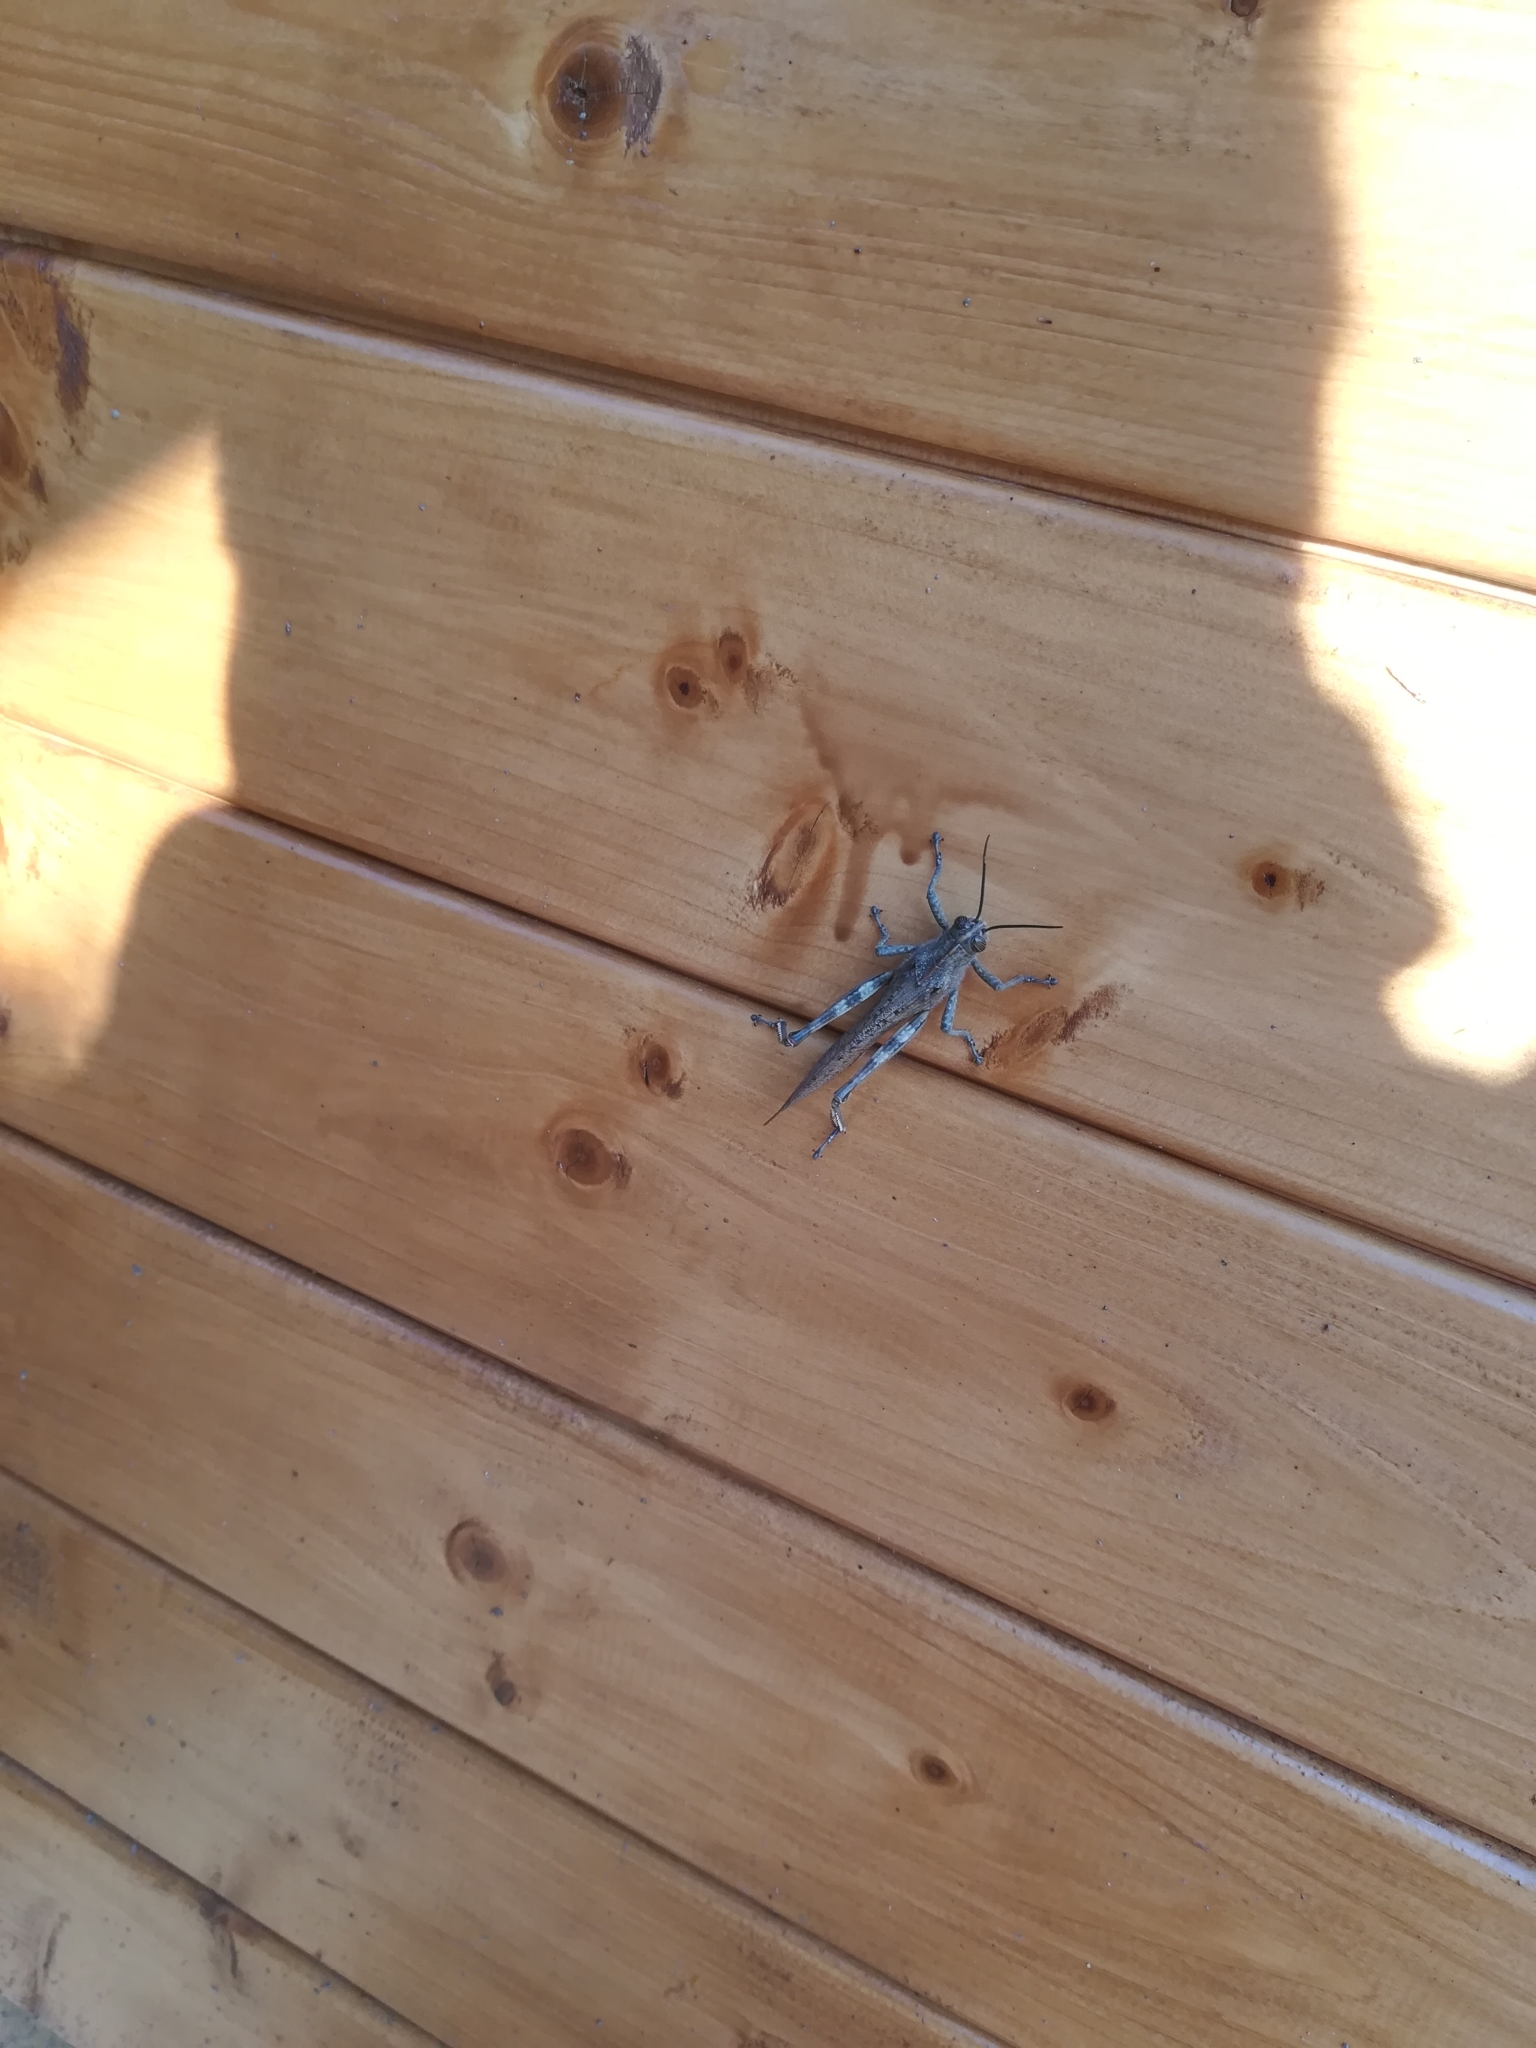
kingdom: Animalia
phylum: Arthropoda
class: Insecta
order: Orthoptera
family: Acrididae
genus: Anacridium
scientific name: Anacridium aegyptium
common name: Egyptian grasshopper
